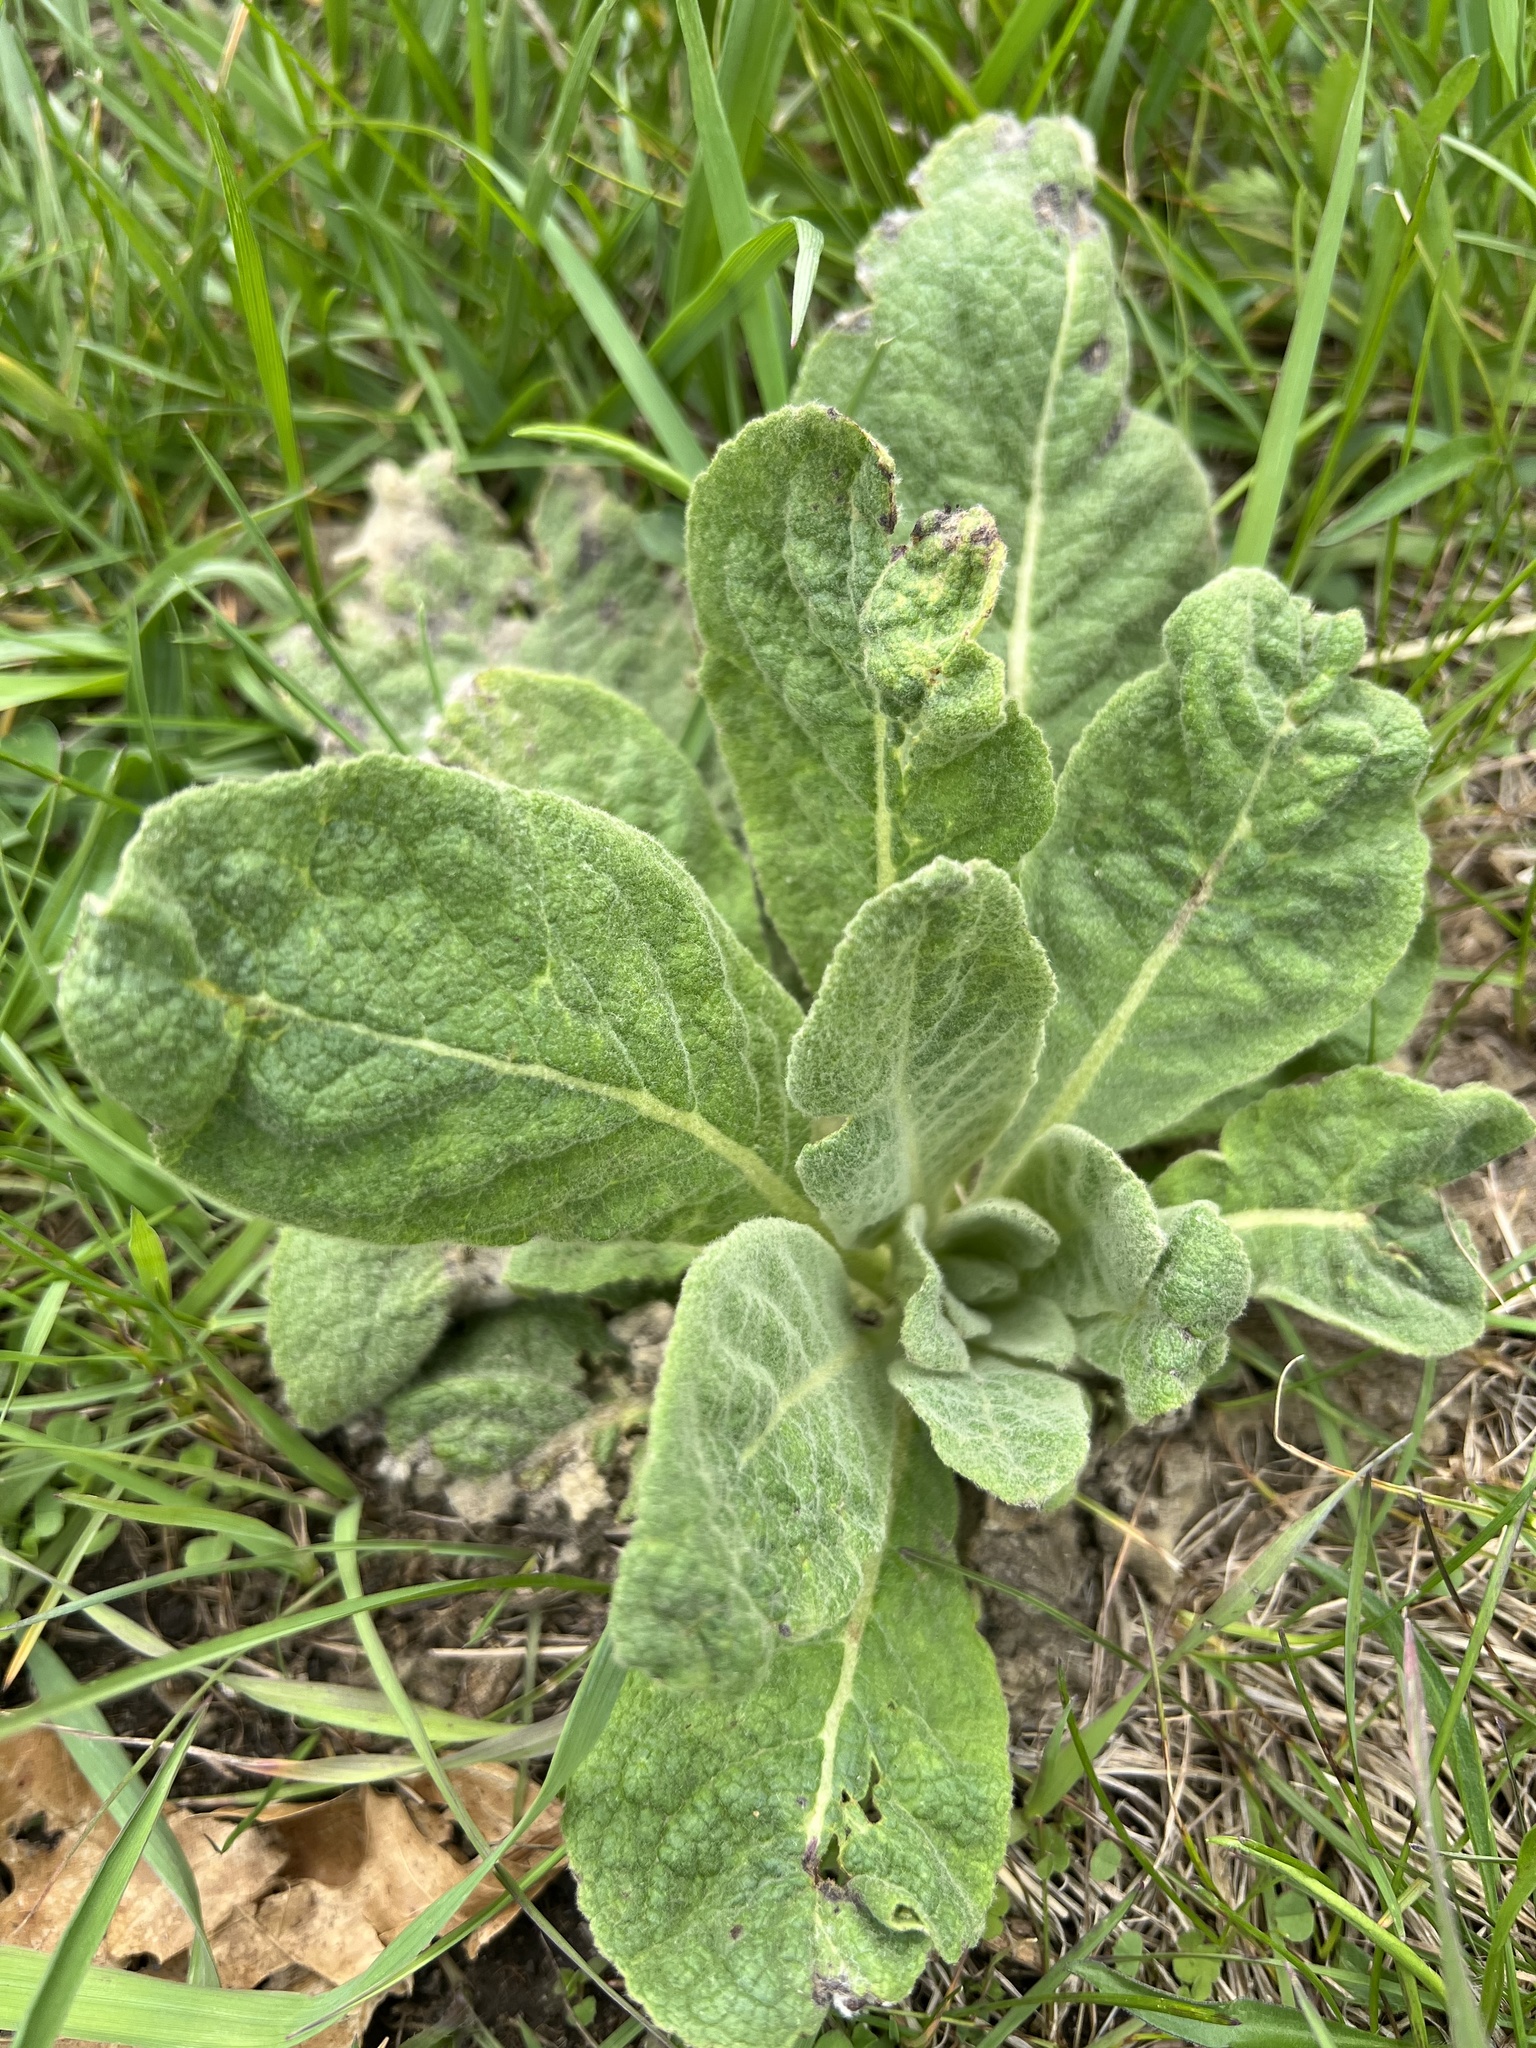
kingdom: Plantae
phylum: Tracheophyta
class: Magnoliopsida
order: Lamiales
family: Scrophulariaceae
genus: Verbascum
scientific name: Verbascum thapsus
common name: Common mullein
